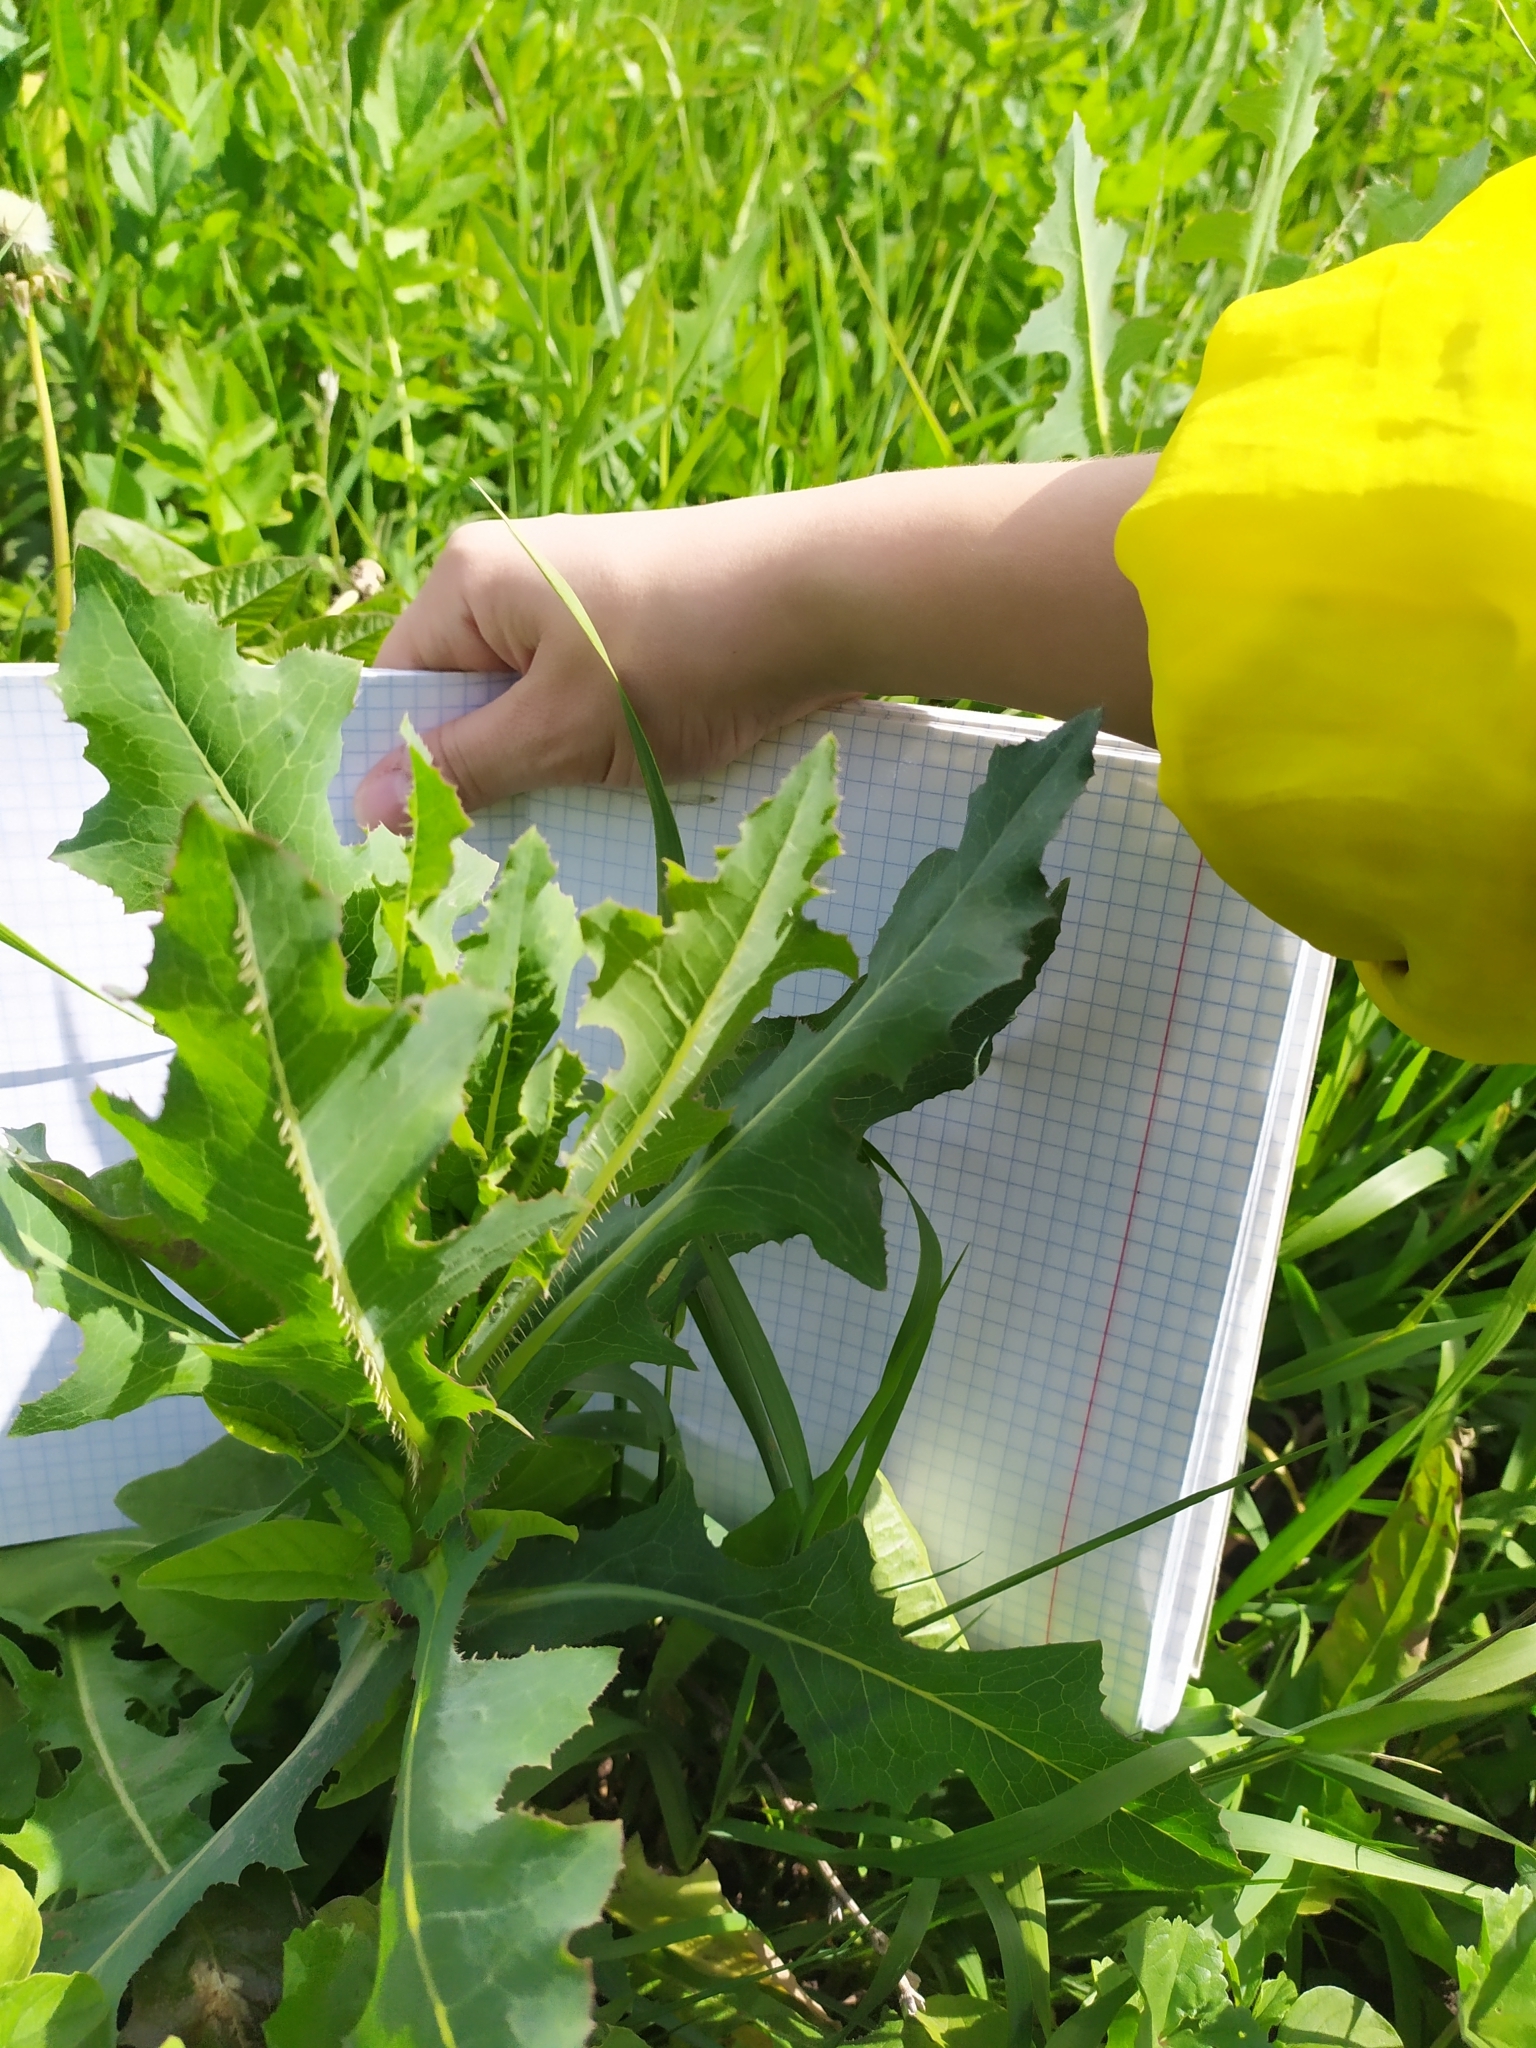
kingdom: Plantae
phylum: Tracheophyta
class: Magnoliopsida
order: Asterales
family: Asteraceae
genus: Lactuca
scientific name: Lactuca serriola
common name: Prickly lettuce
